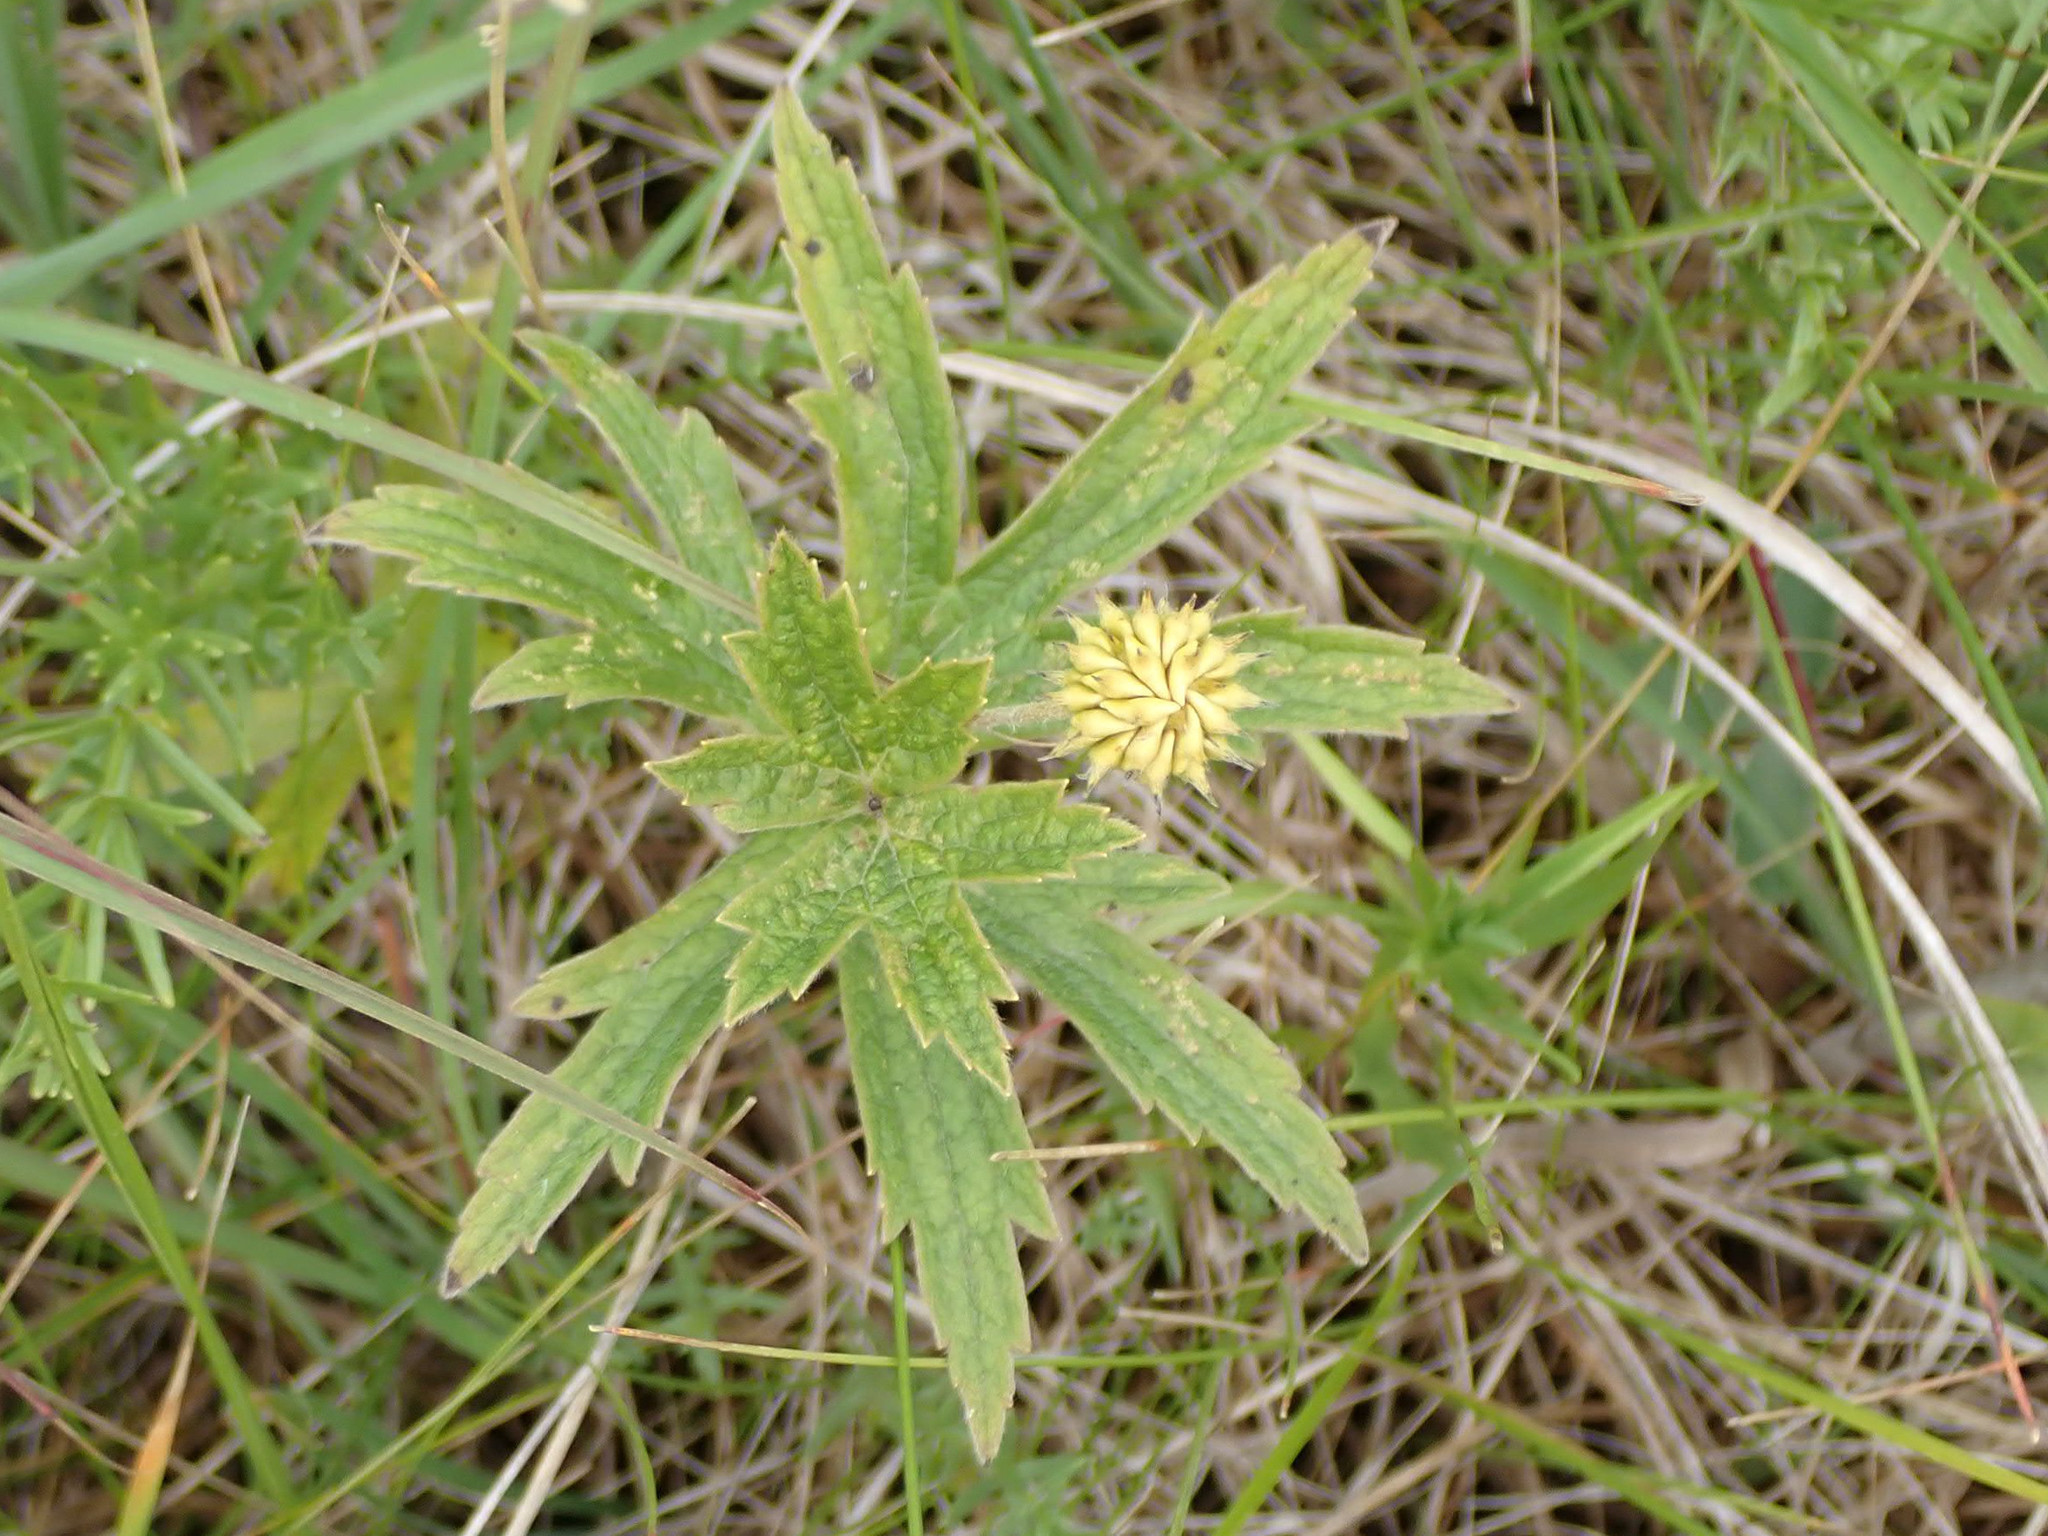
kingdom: Plantae
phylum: Tracheophyta
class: Magnoliopsida
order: Ranunculales
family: Ranunculaceae
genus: Anemonastrum
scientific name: Anemonastrum canadense
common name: Canada anemone
